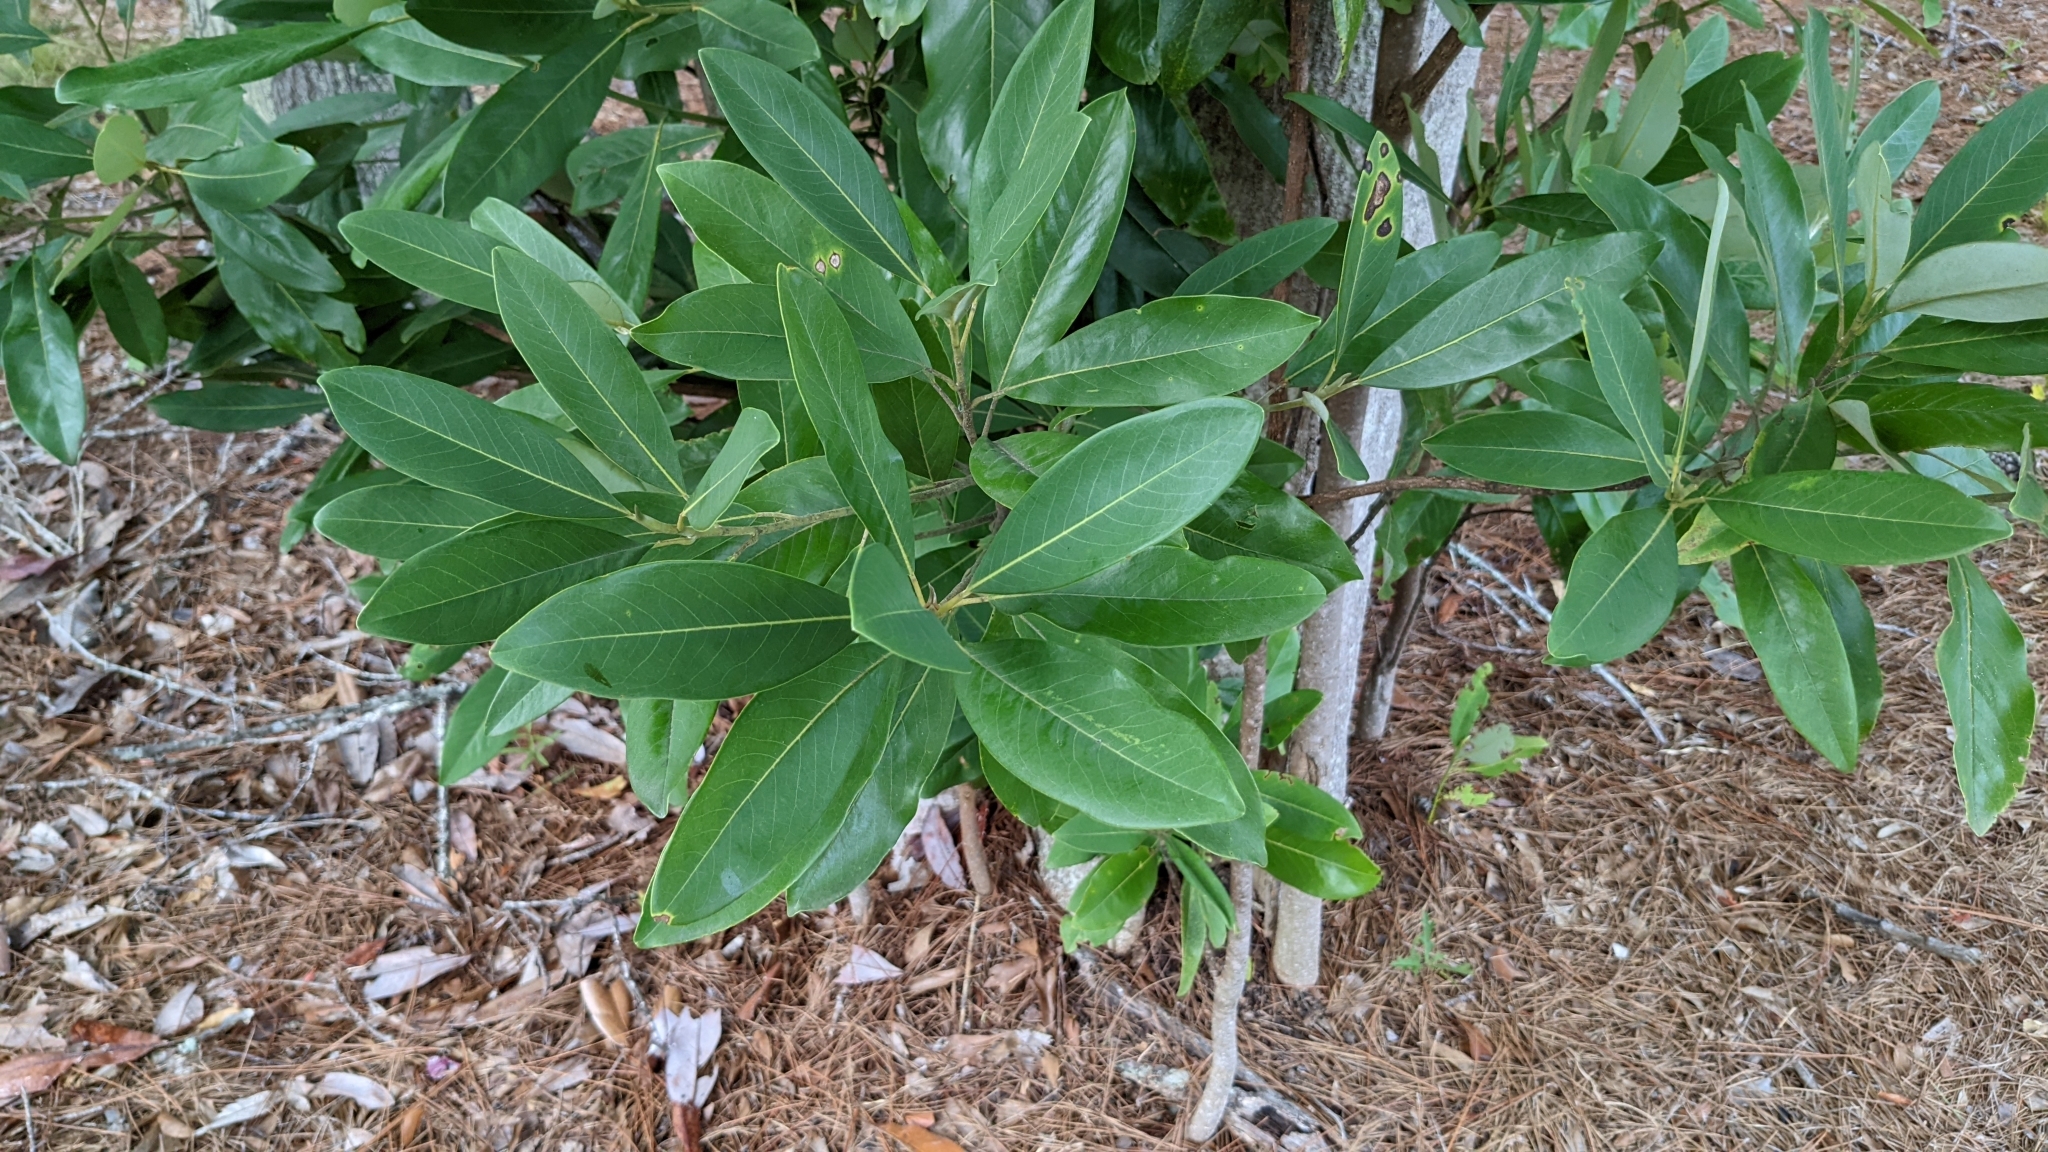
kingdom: Plantae
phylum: Tracheophyta
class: Magnoliopsida
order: Magnoliales
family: Magnoliaceae
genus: Magnolia
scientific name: Magnolia virginiana
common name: Swamp bay
